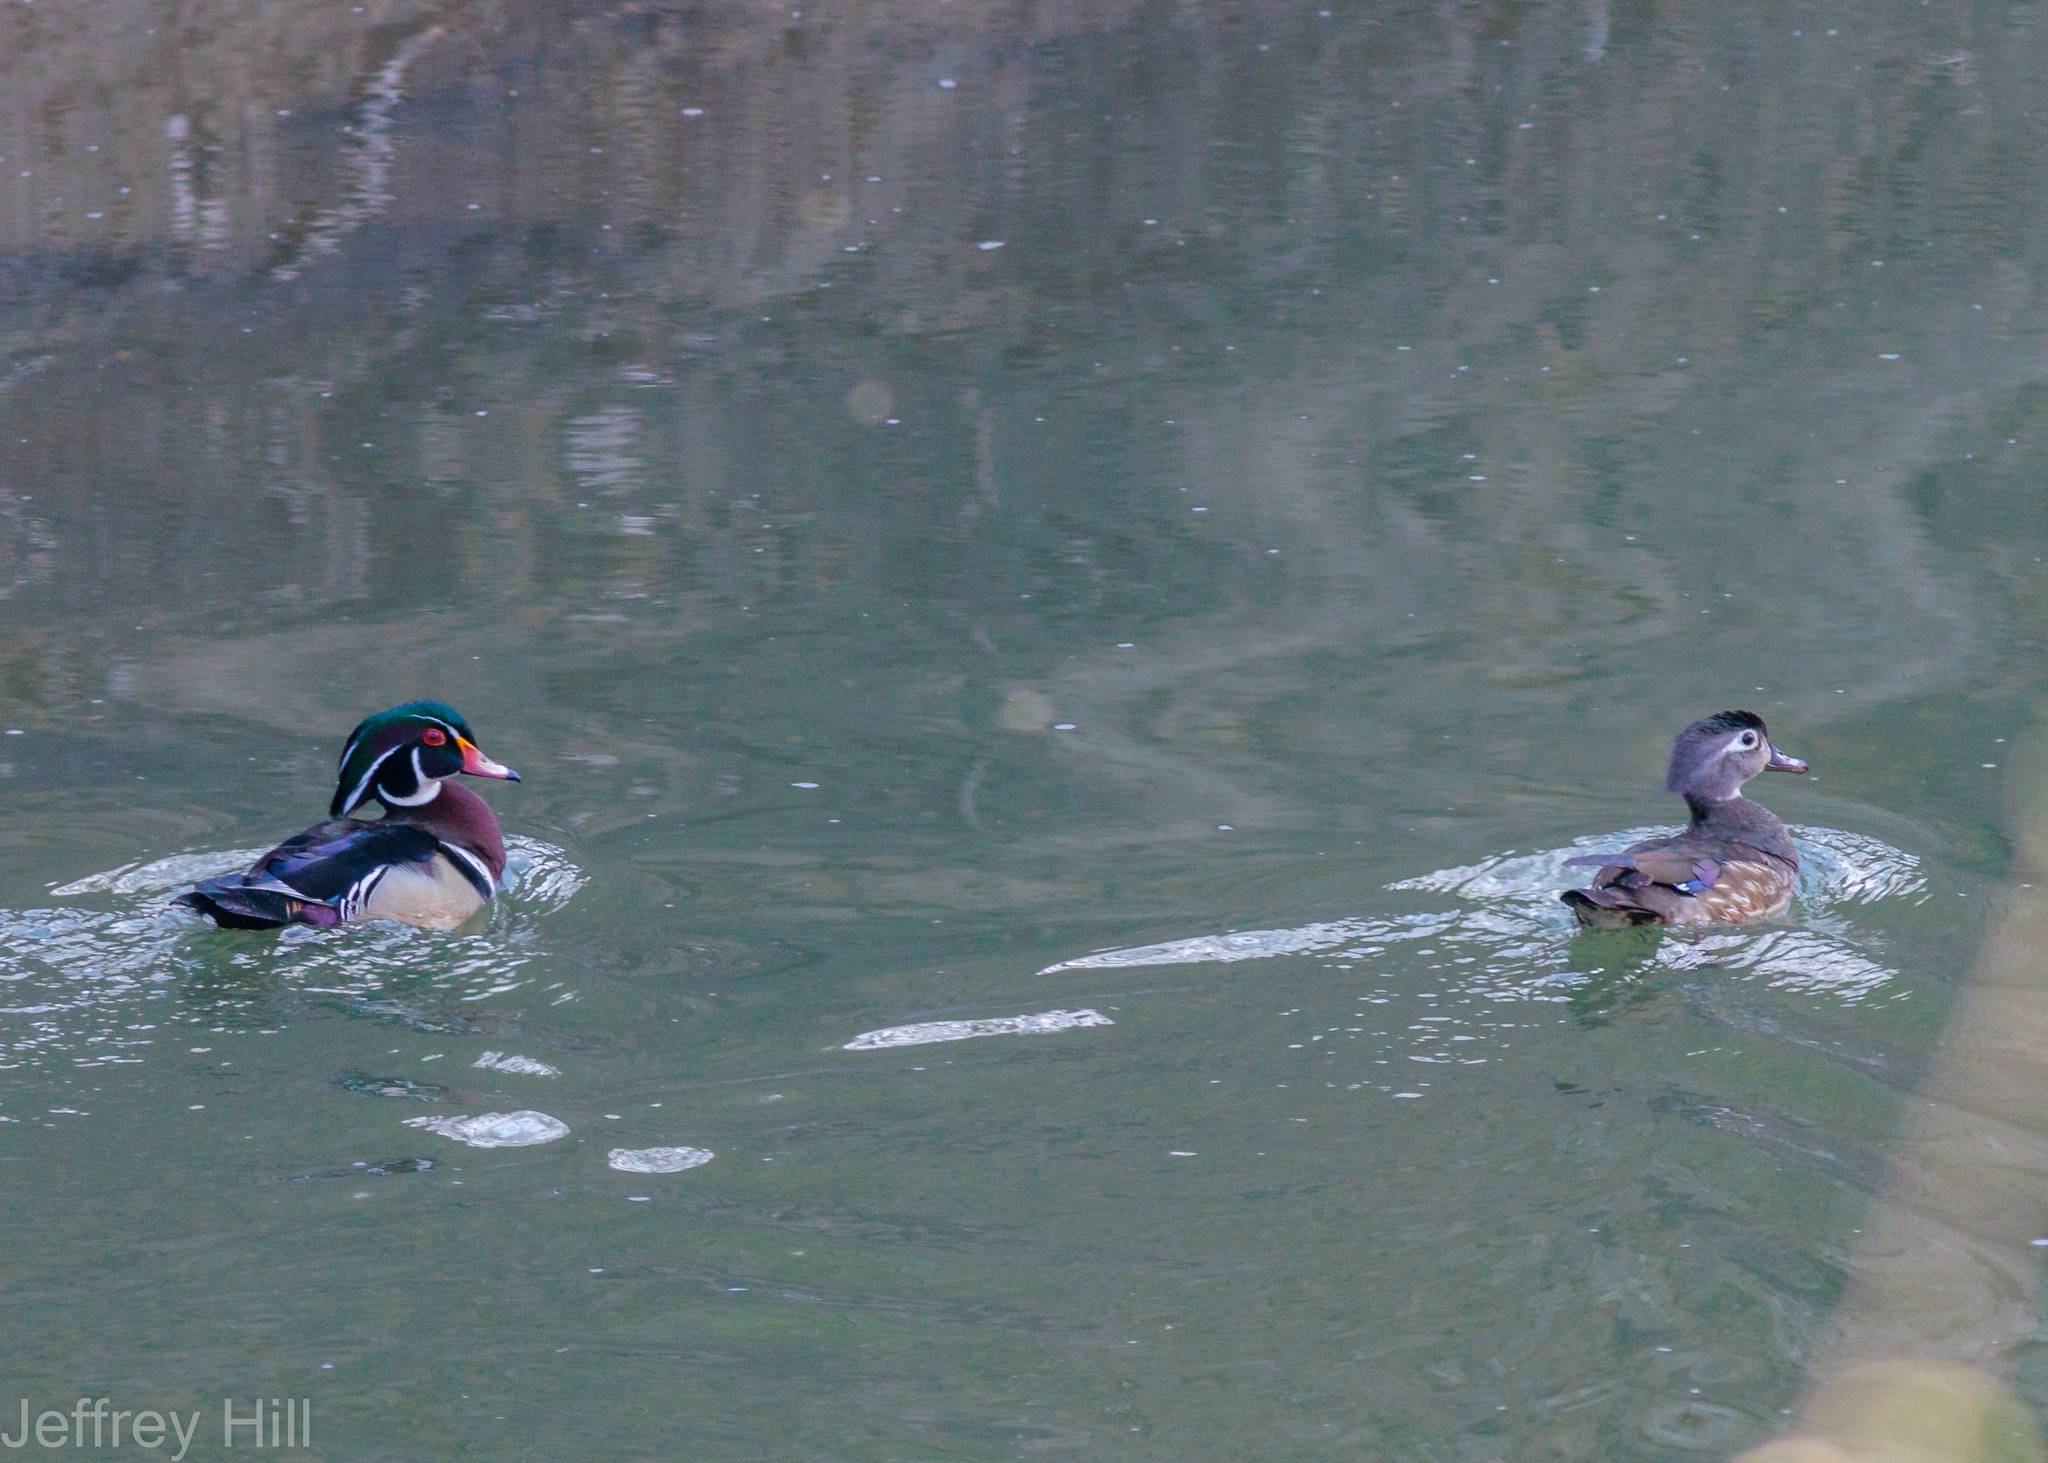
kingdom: Animalia
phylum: Chordata
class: Aves
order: Anseriformes
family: Anatidae
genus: Aix
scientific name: Aix sponsa
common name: Wood duck
